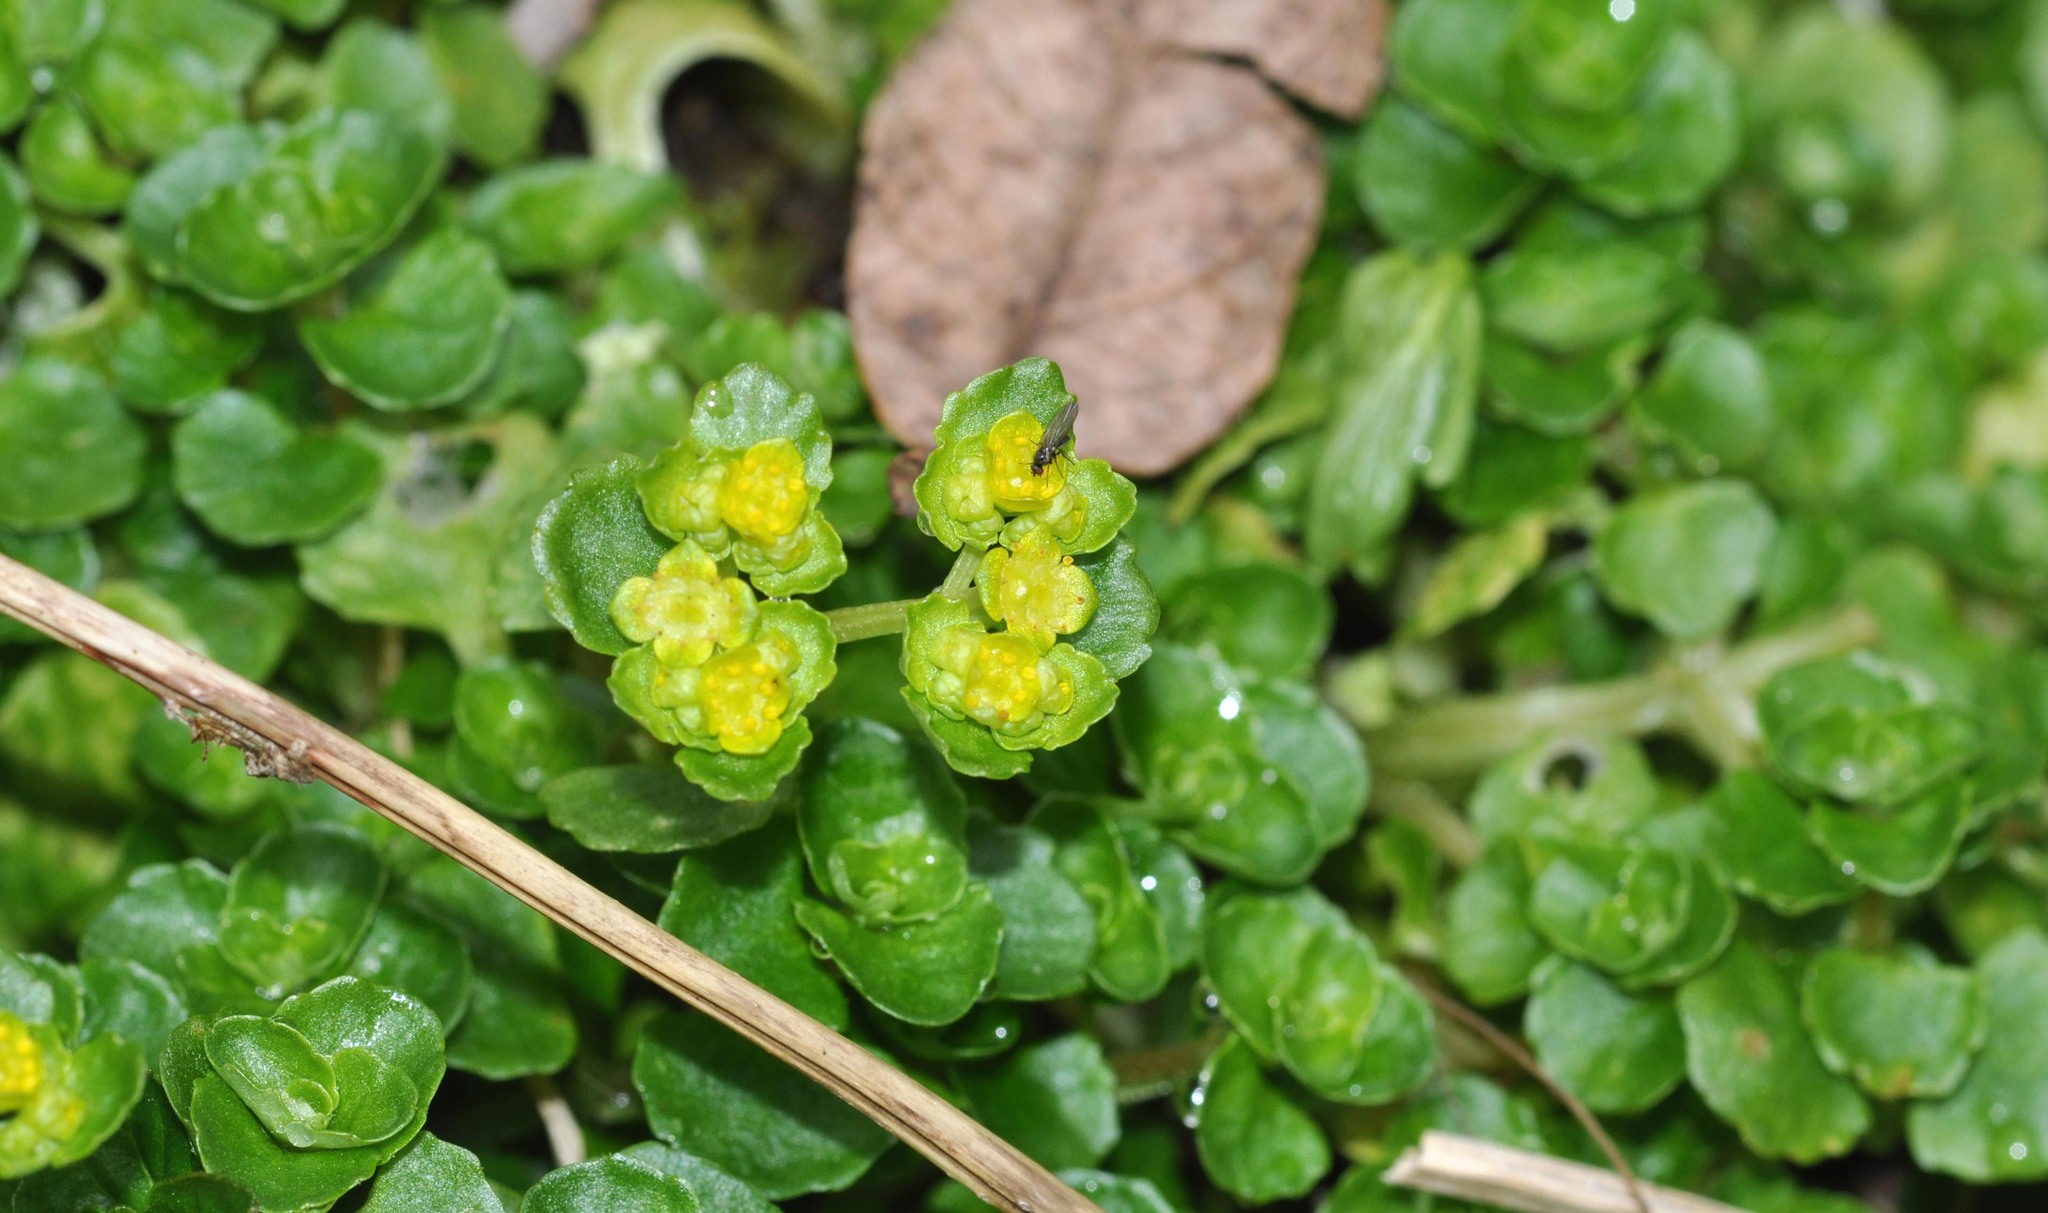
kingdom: Plantae
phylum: Tracheophyta
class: Magnoliopsida
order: Saxifragales
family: Saxifragaceae
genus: Chrysosplenium
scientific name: Chrysosplenium oppositifolium
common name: Opposite-leaved golden-saxifrage
